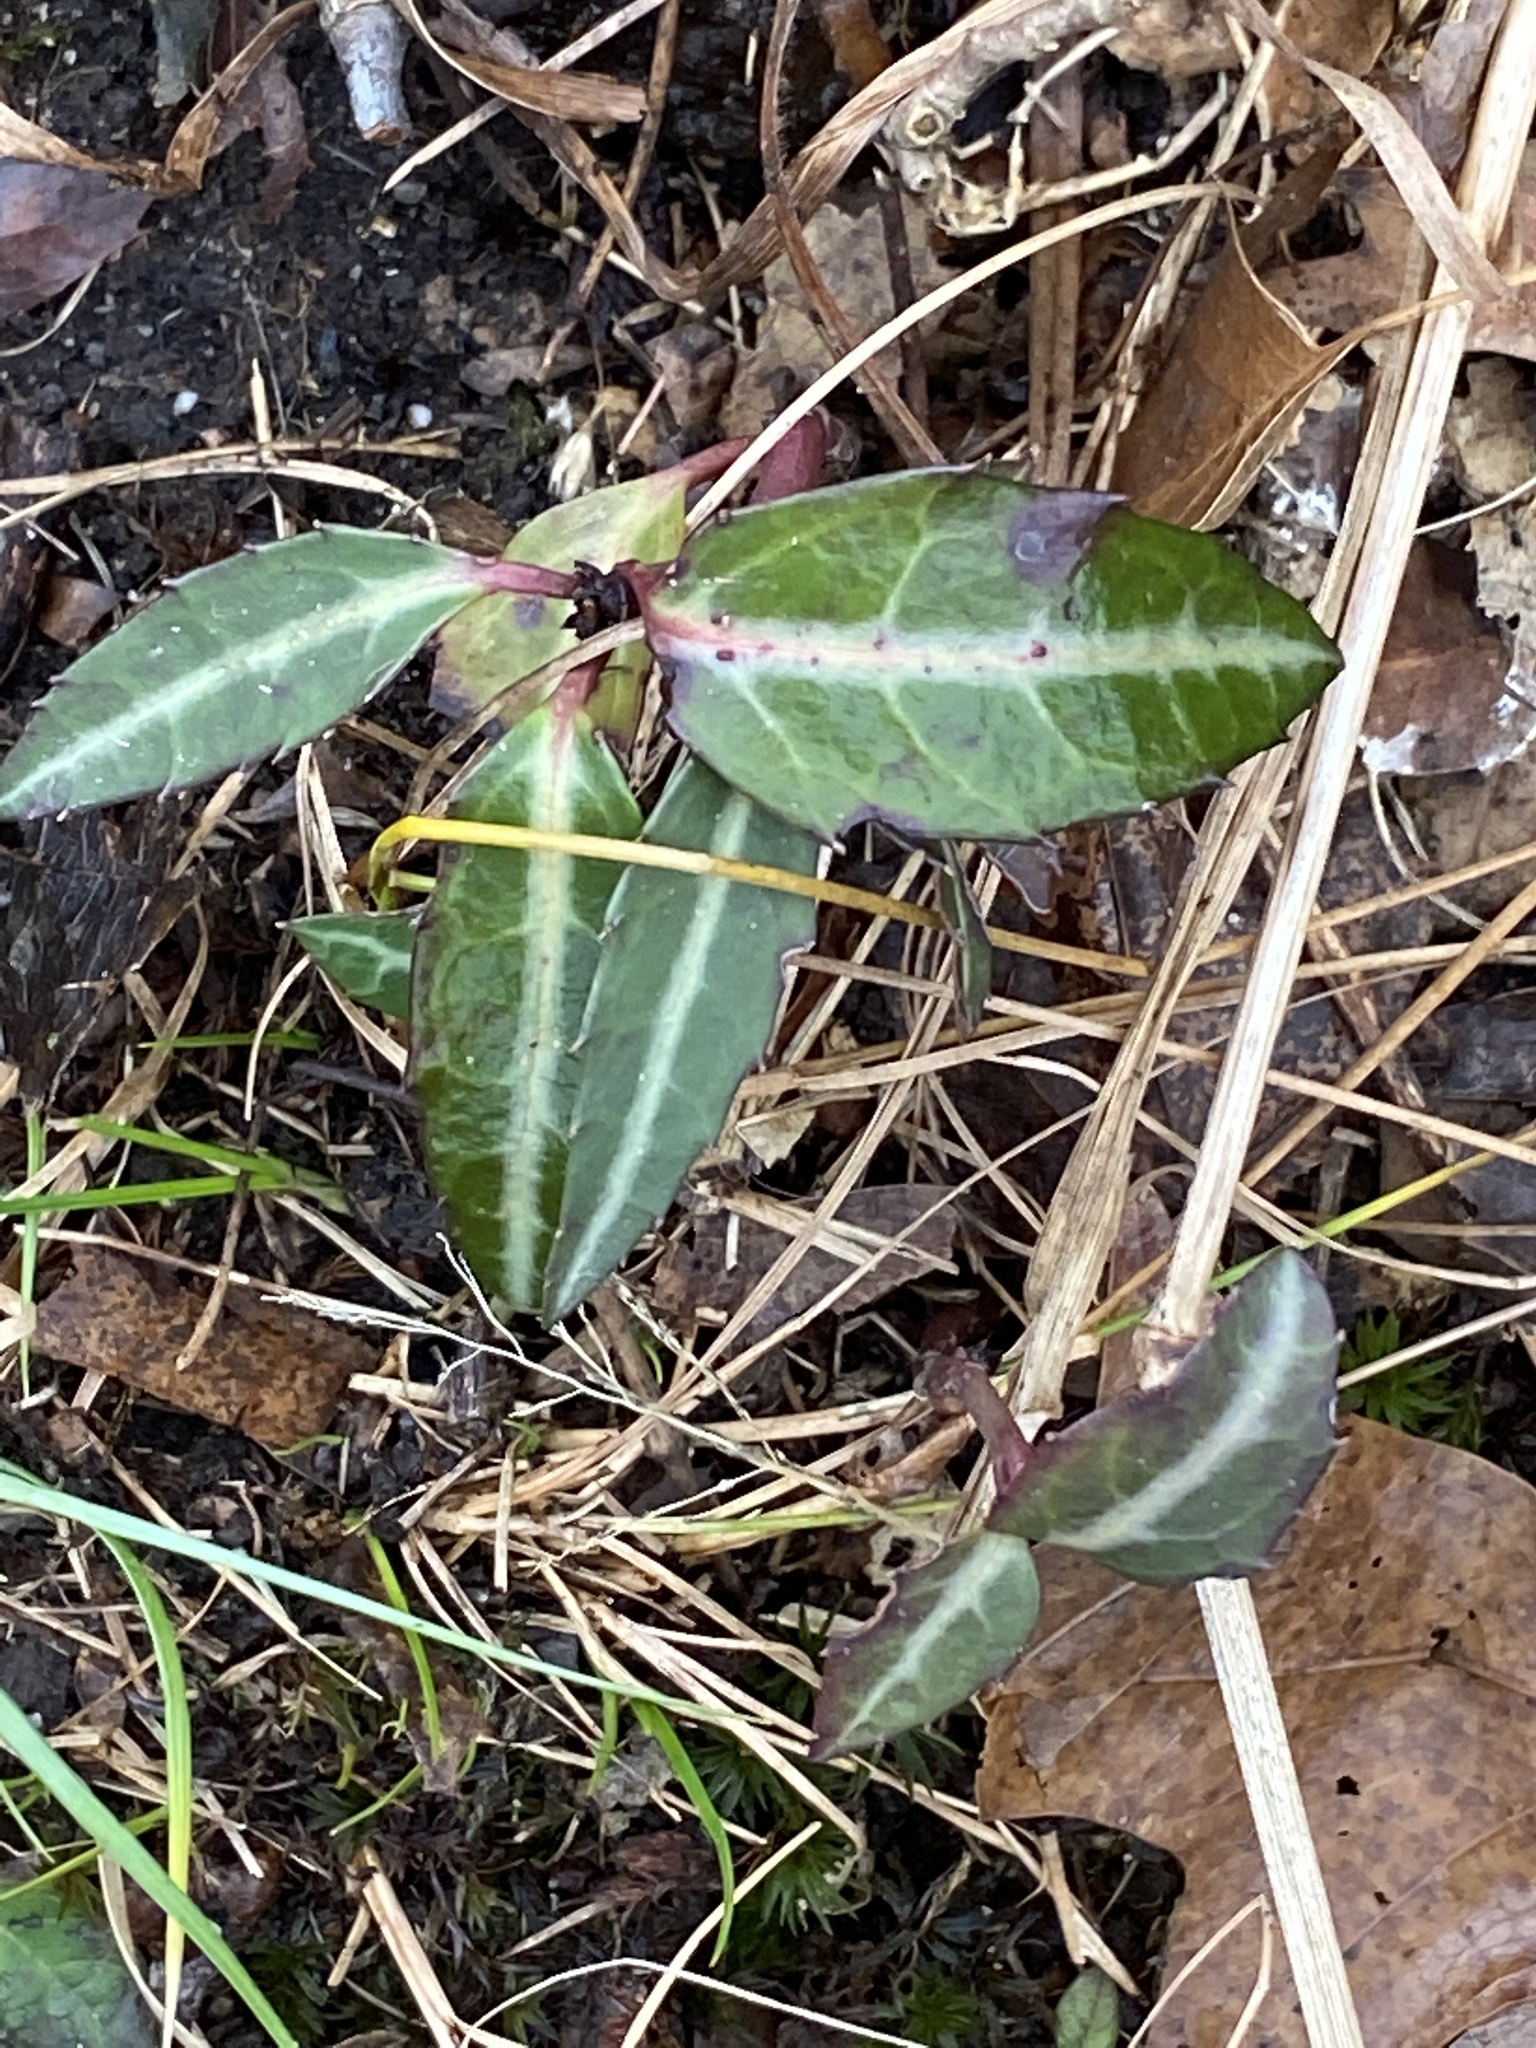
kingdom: Plantae
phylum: Tracheophyta
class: Magnoliopsida
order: Ericales
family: Ericaceae
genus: Chimaphila
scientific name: Chimaphila maculata
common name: Spotted pipsissewa
